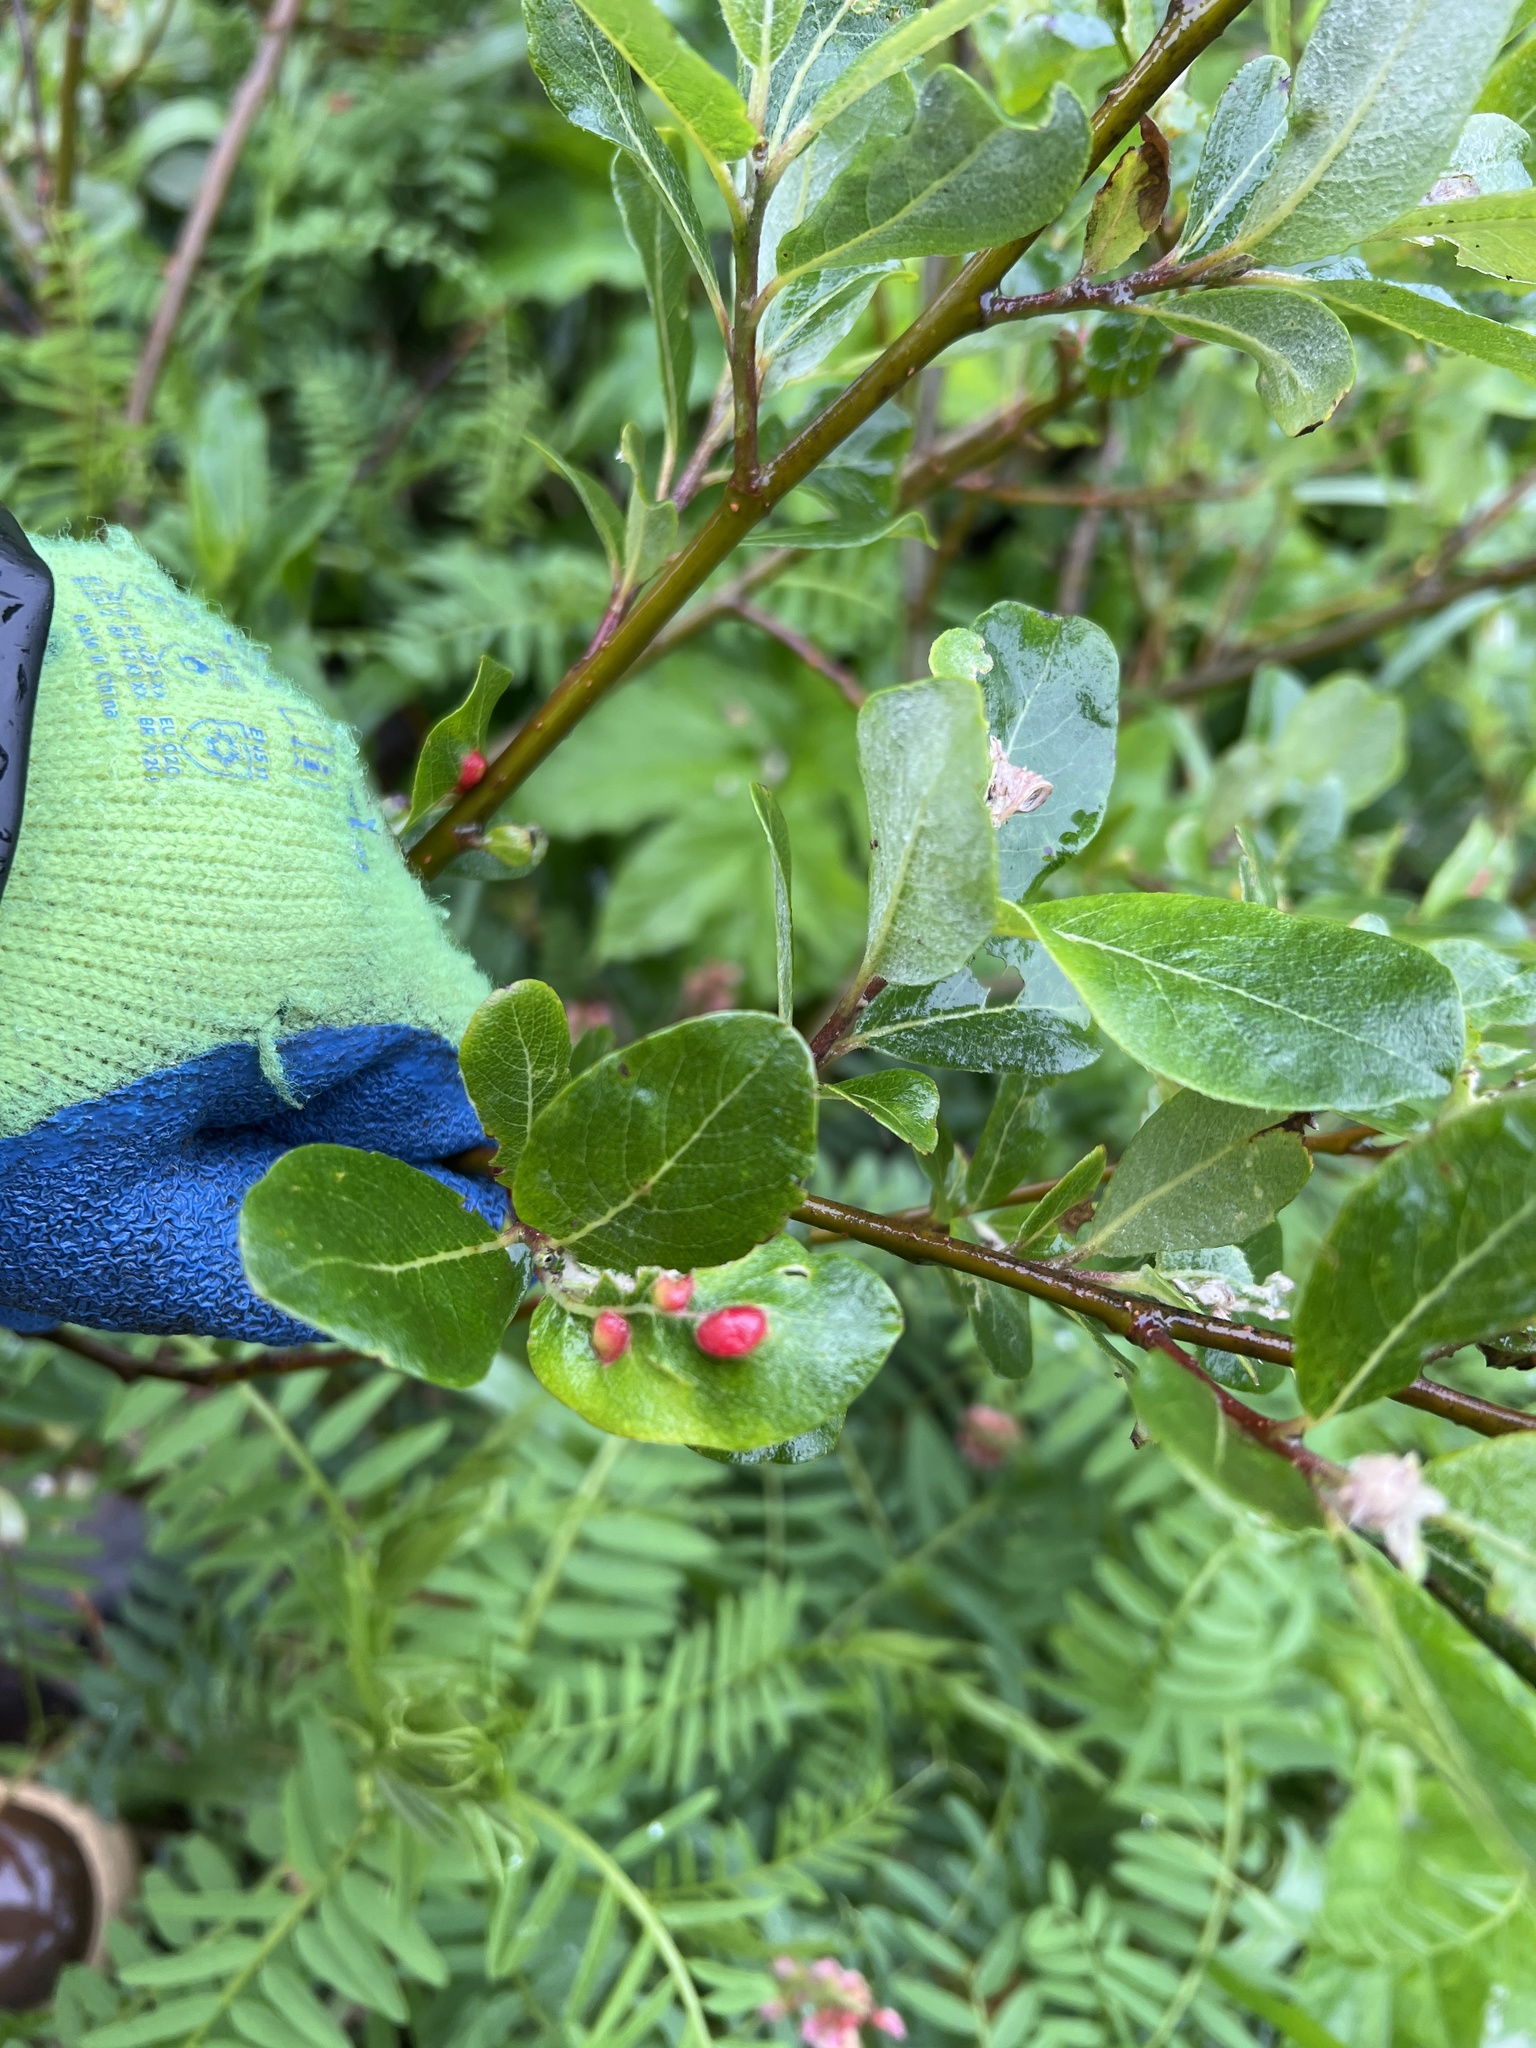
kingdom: Animalia
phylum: Arthropoda
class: Insecta
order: Hymenoptera
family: Tenthredinidae
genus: Euura
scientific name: Euura
